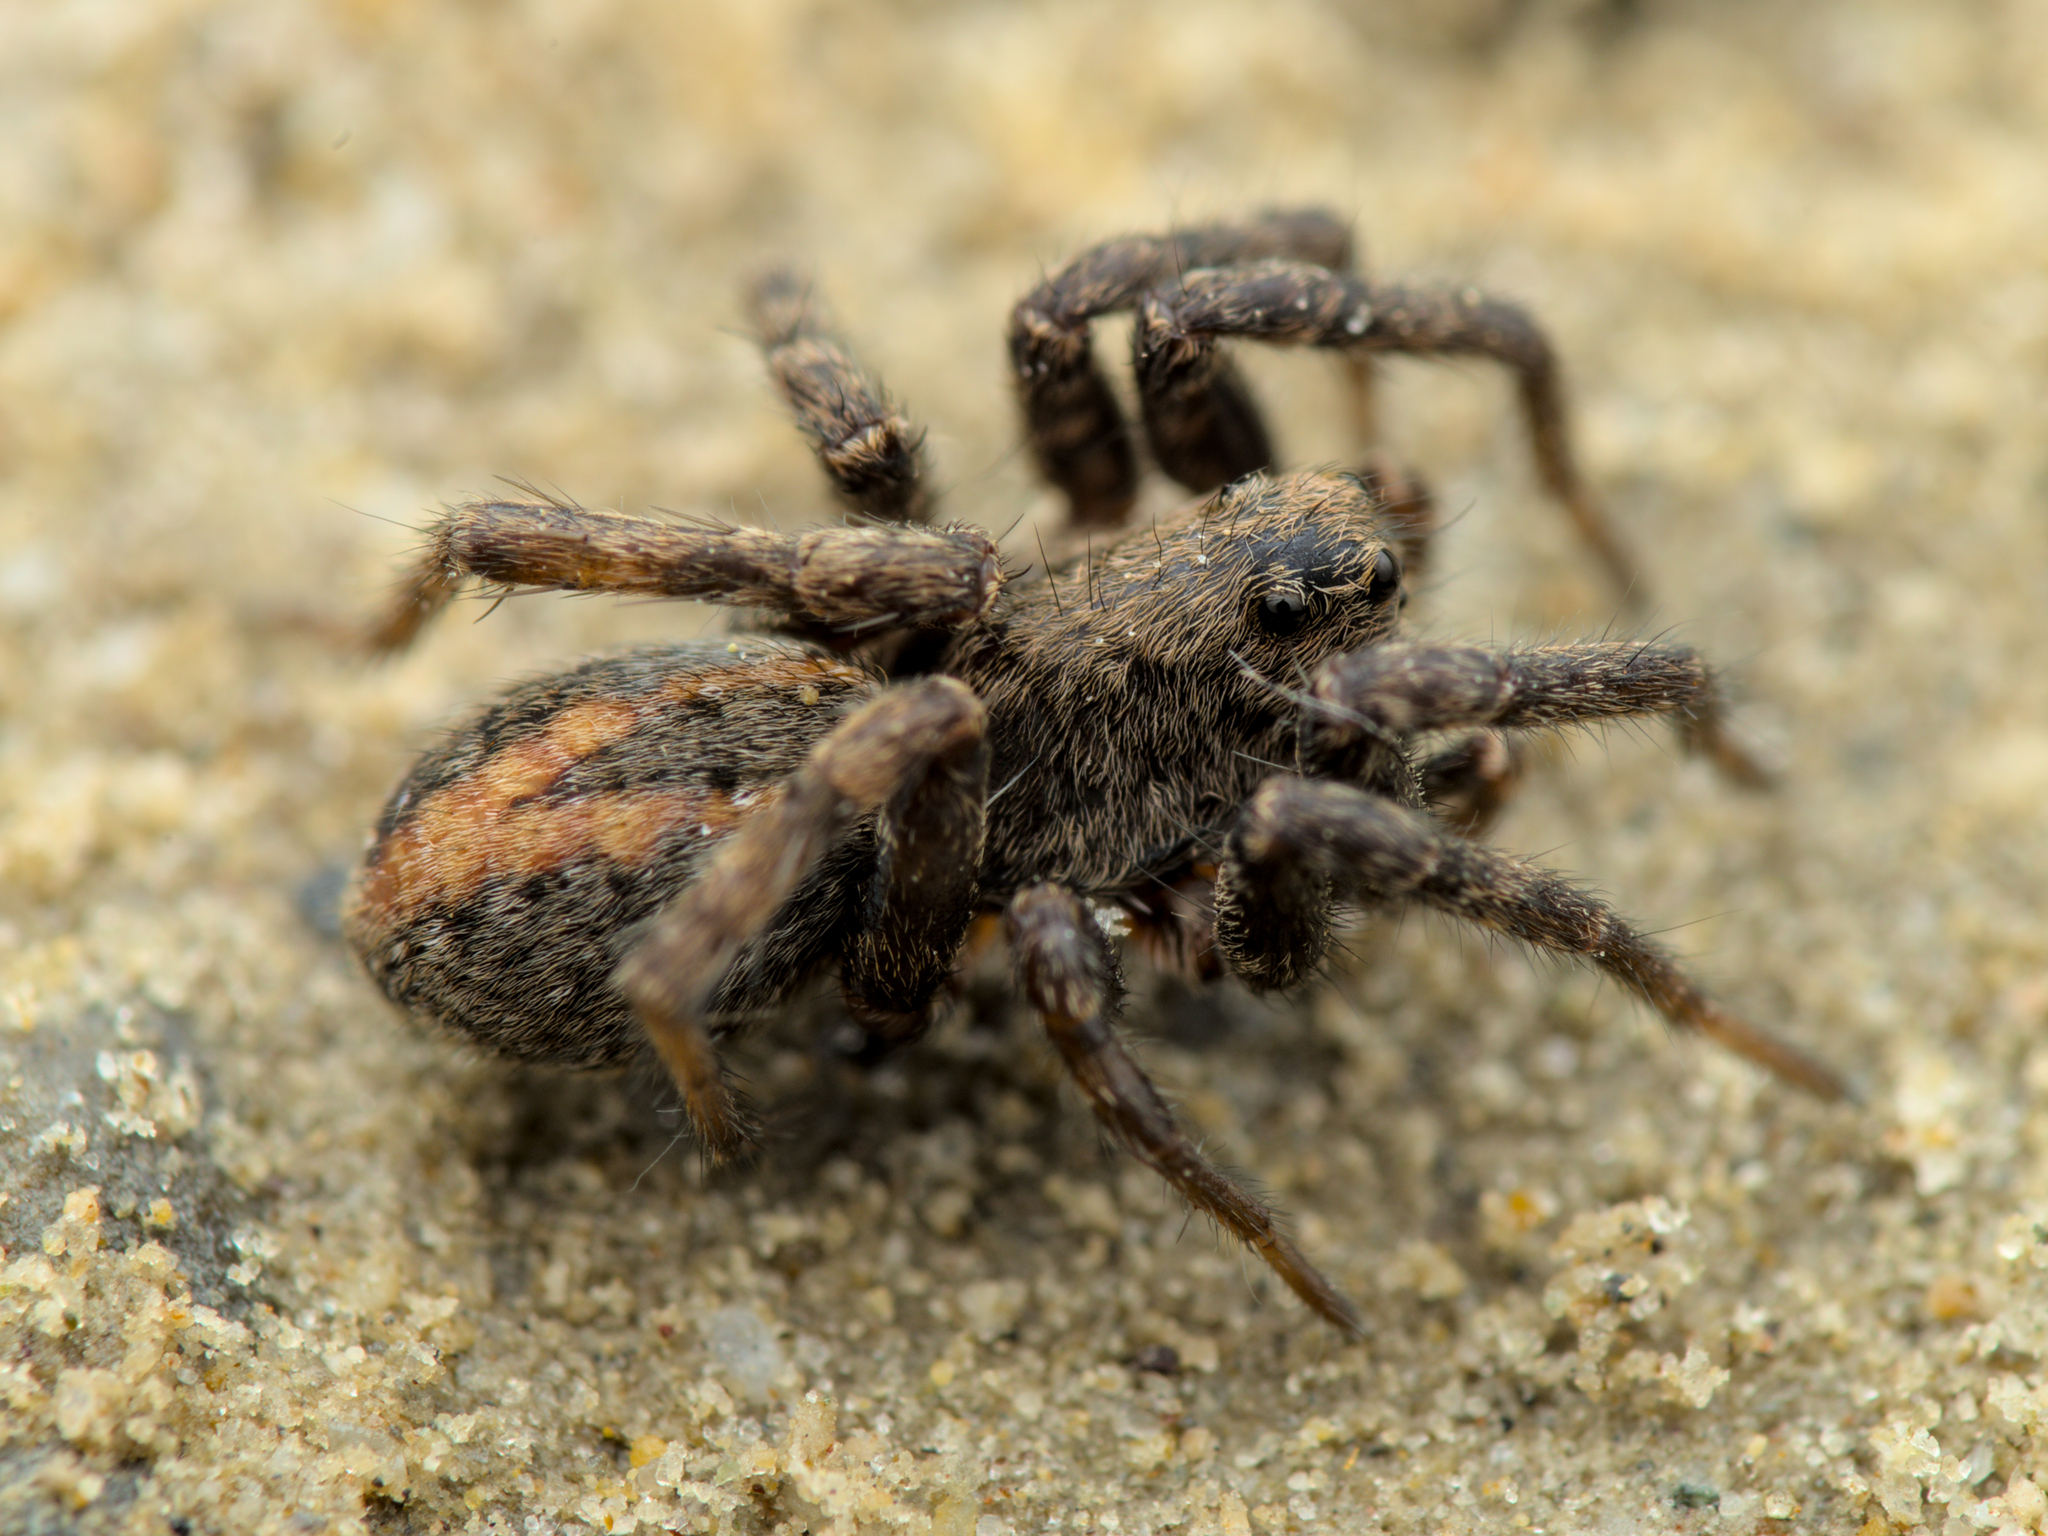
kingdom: Animalia
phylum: Arthropoda
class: Arachnida
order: Araneae
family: Lycosidae
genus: Alopecosa
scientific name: Alopecosa
